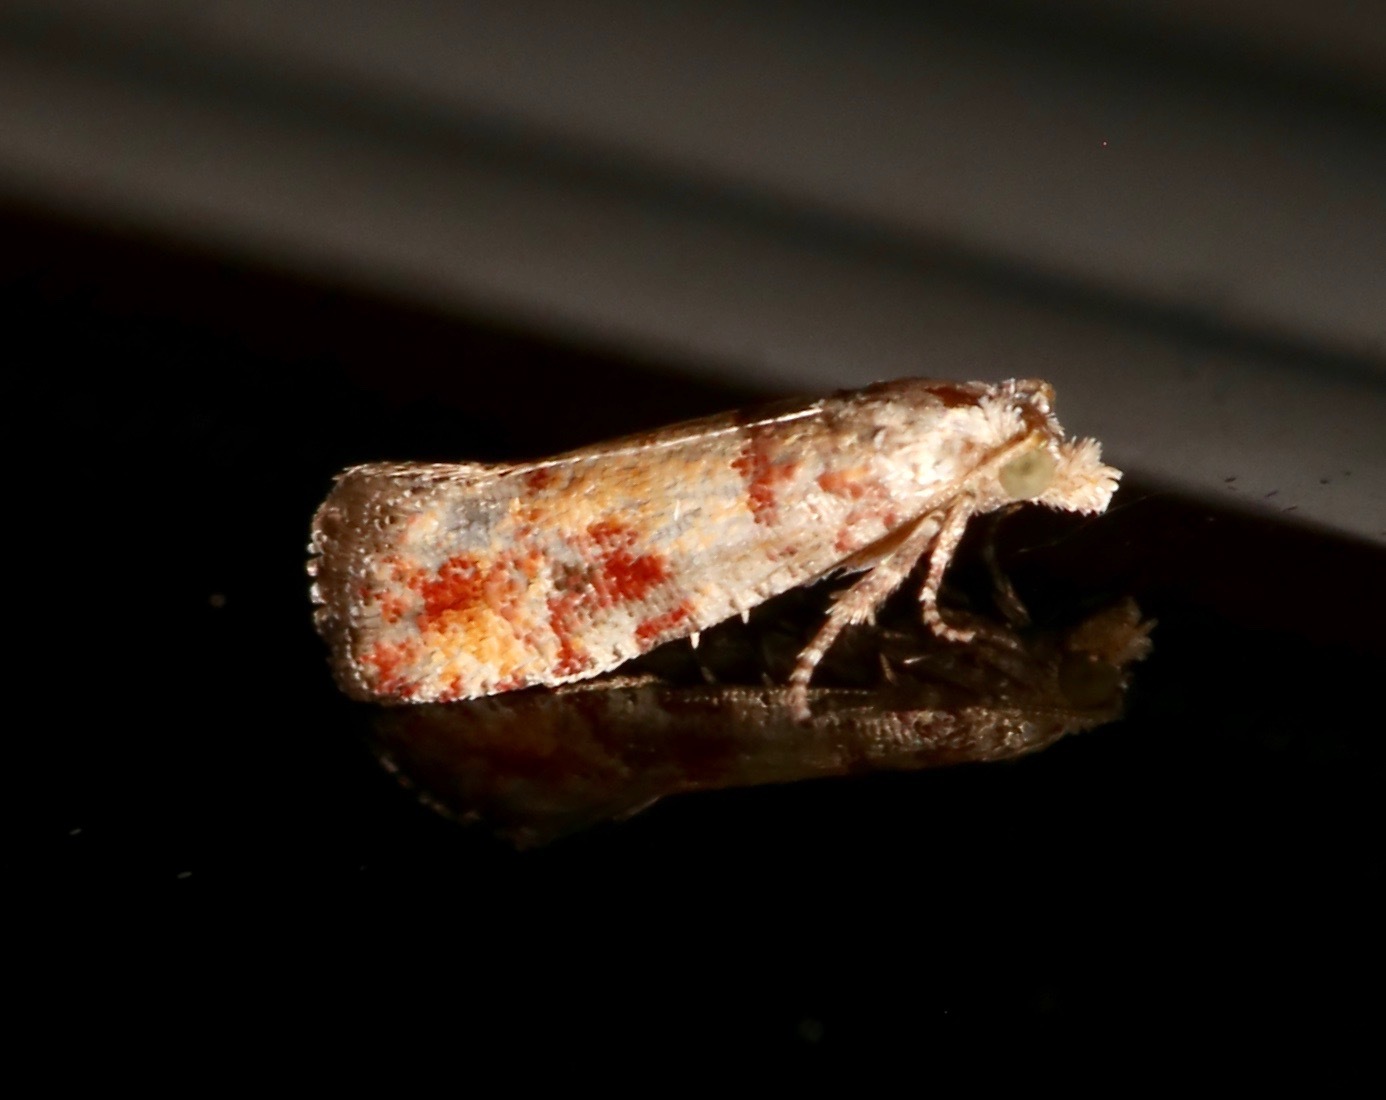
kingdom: Animalia
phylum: Arthropoda
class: Insecta
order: Lepidoptera
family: Tortricidae
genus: Rhyacionia
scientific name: Rhyacionia rigidana
